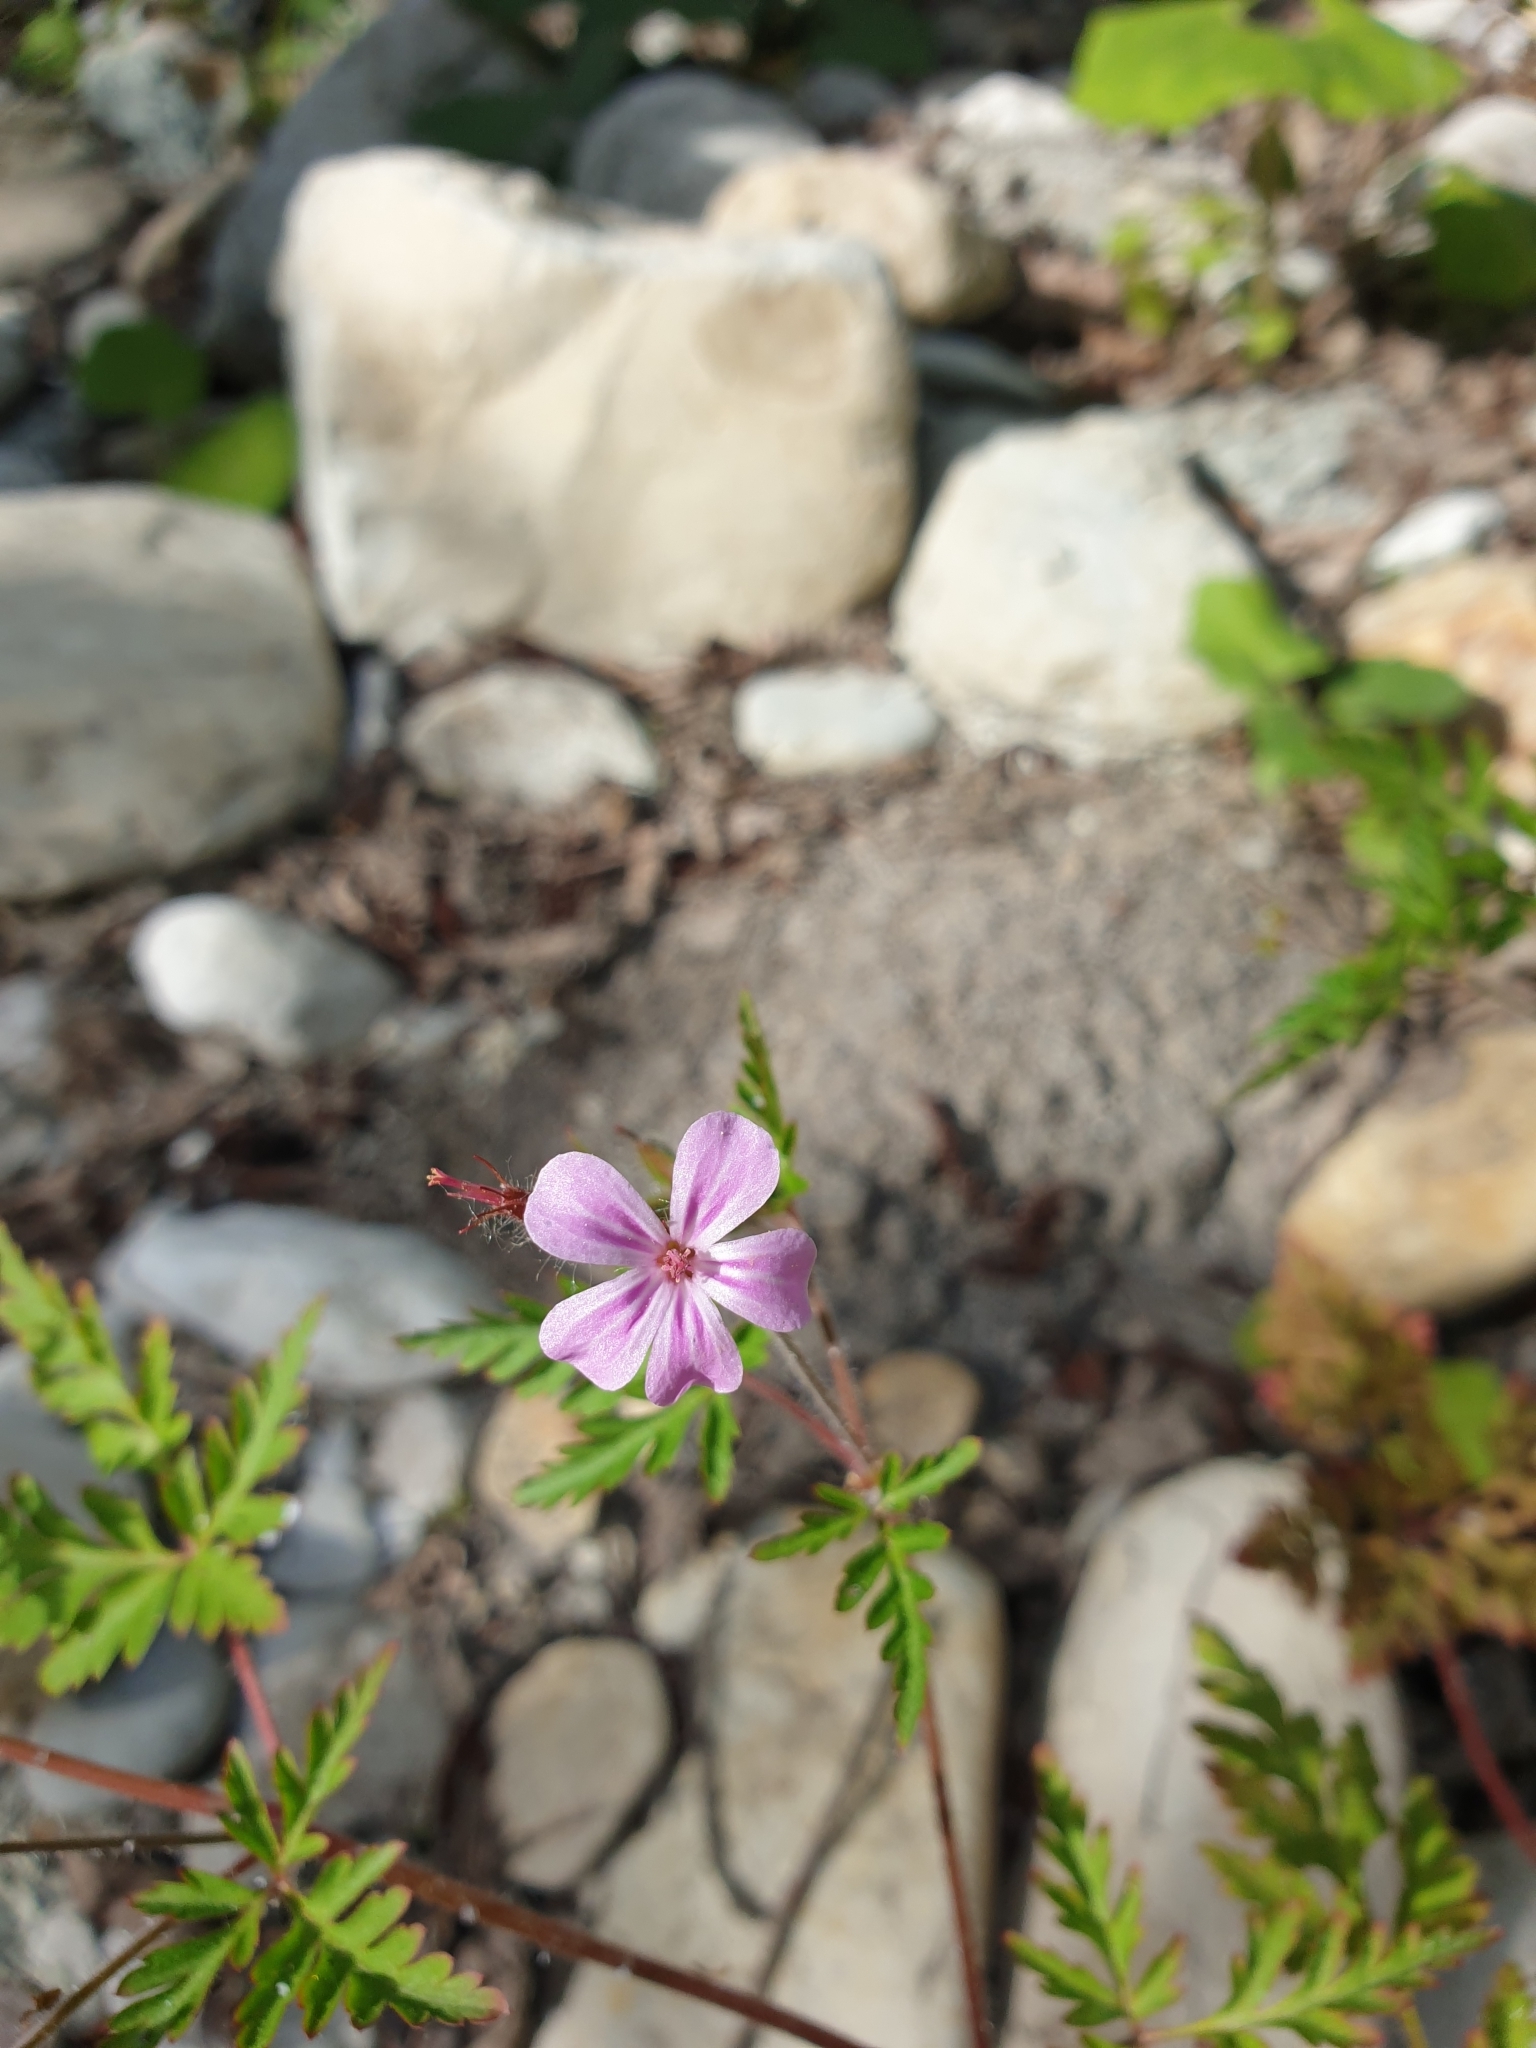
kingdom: Plantae
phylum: Tracheophyta
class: Magnoliopsida
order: Geraniales
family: Geraniaceae
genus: Geranium
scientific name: Geranium robertianum
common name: Herb-robert
